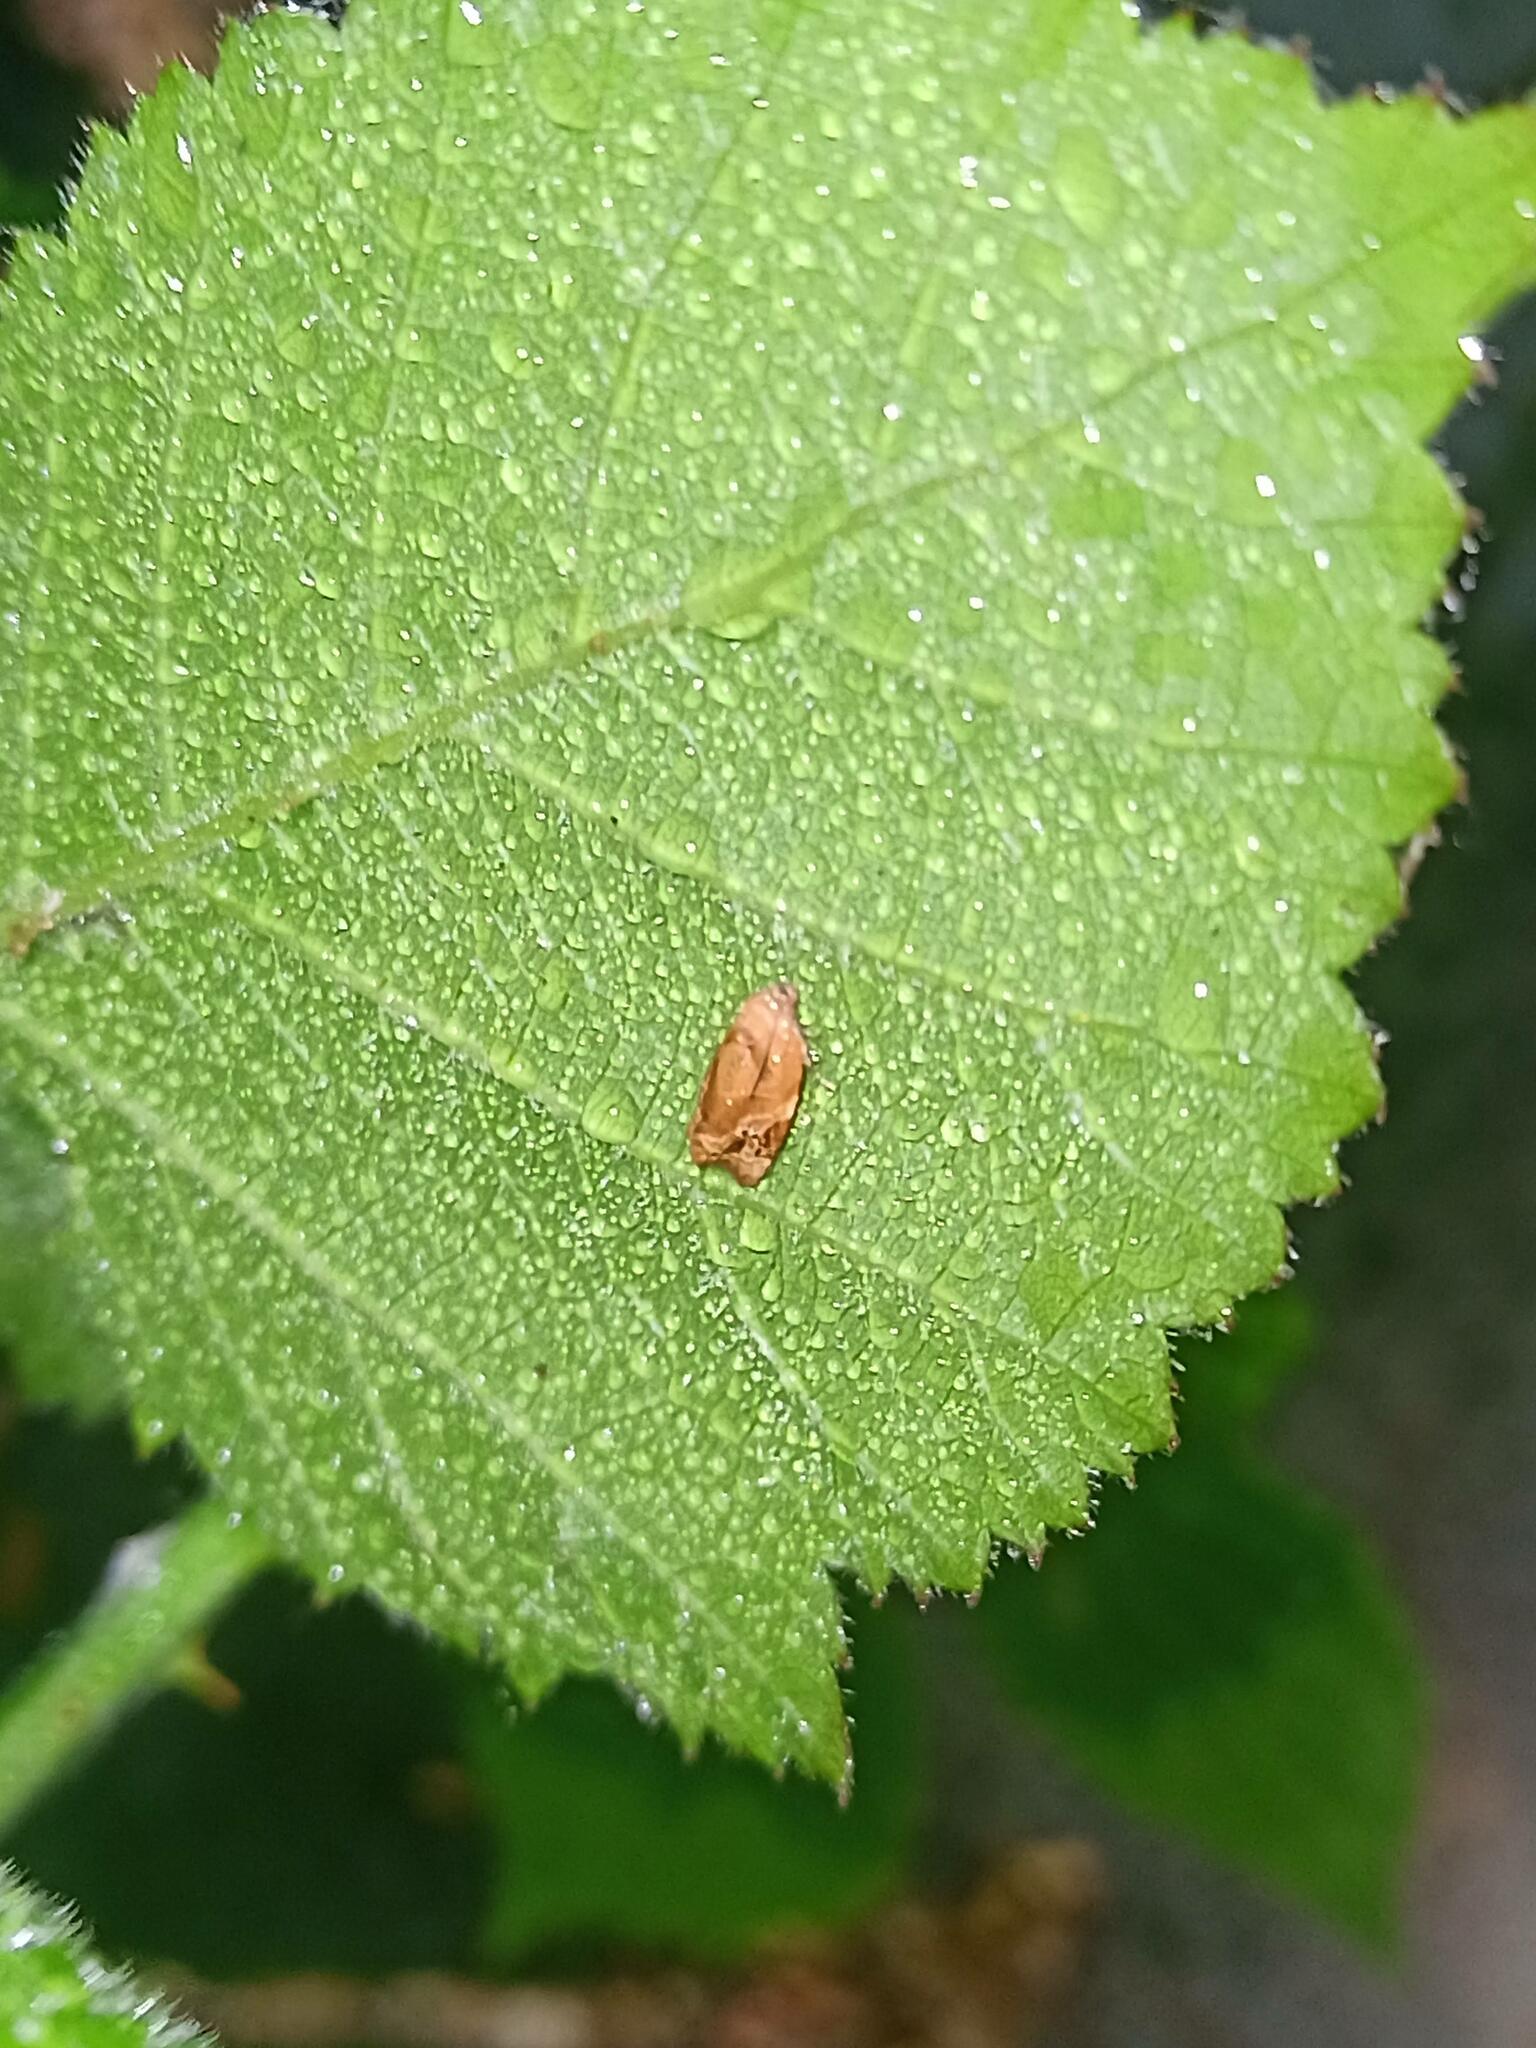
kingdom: Animalia
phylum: Arthropoda
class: Insecta
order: Lepidoptera
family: Tortricidae
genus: Ditula
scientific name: Ditula angustiorana
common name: Red-barred tortrix
